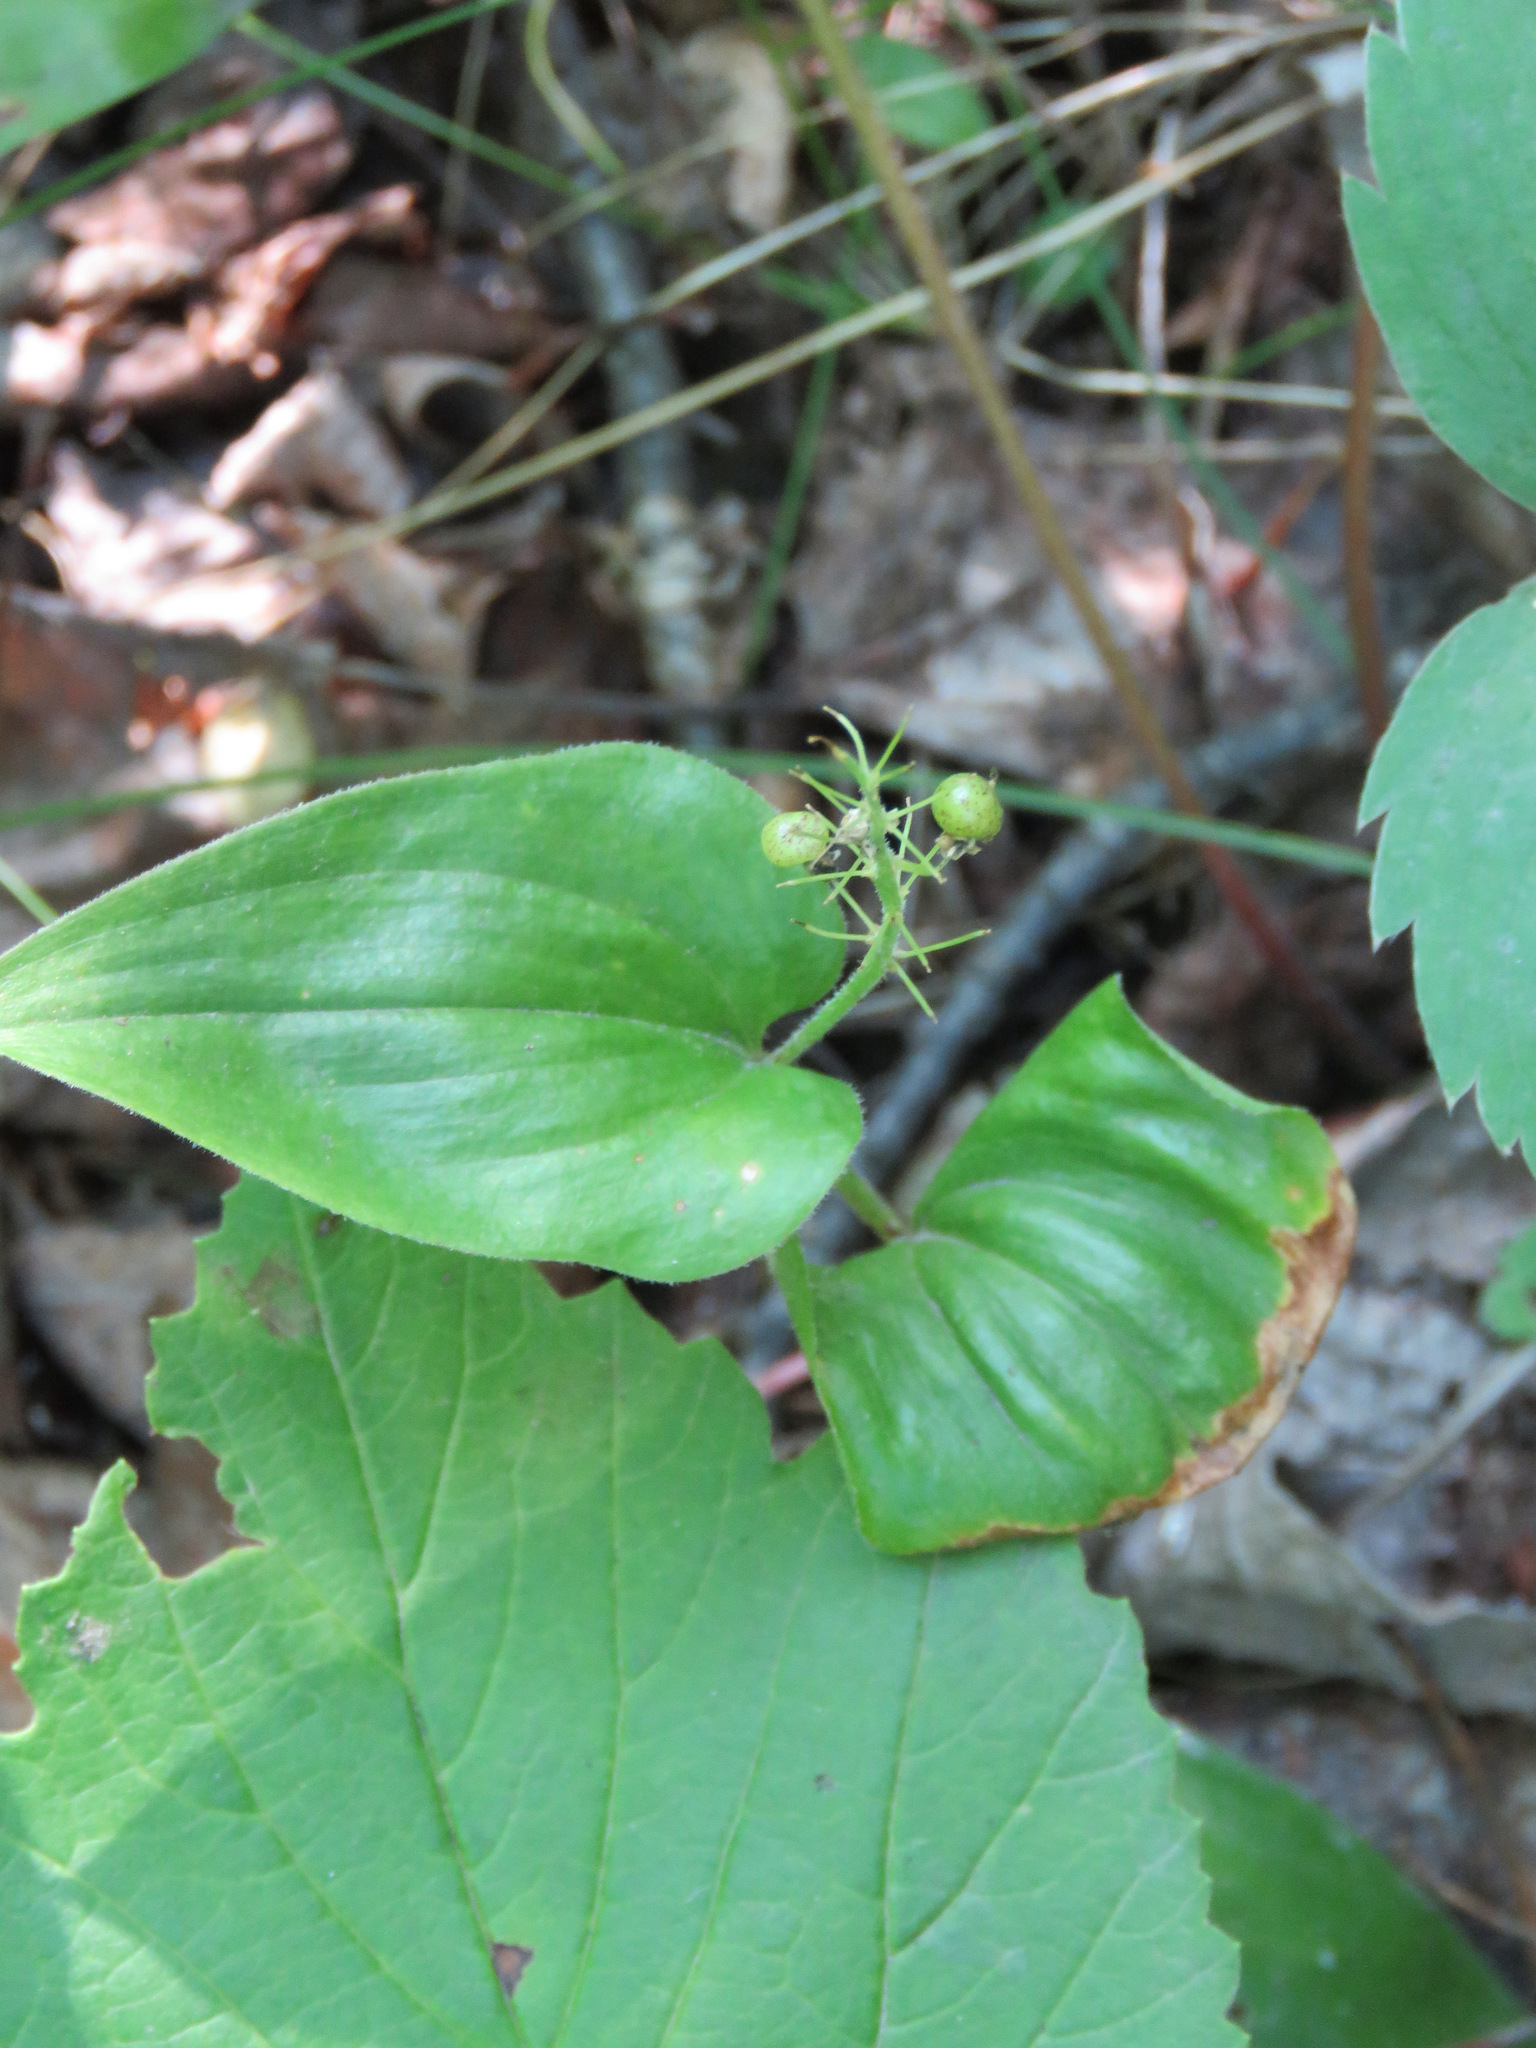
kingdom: Plantae
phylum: Tracheophyta
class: Liliopsida
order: Asparagales
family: Asparagaceae
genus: Maianthemum
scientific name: Maianthemum canadense
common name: False lily-of-the-valley
